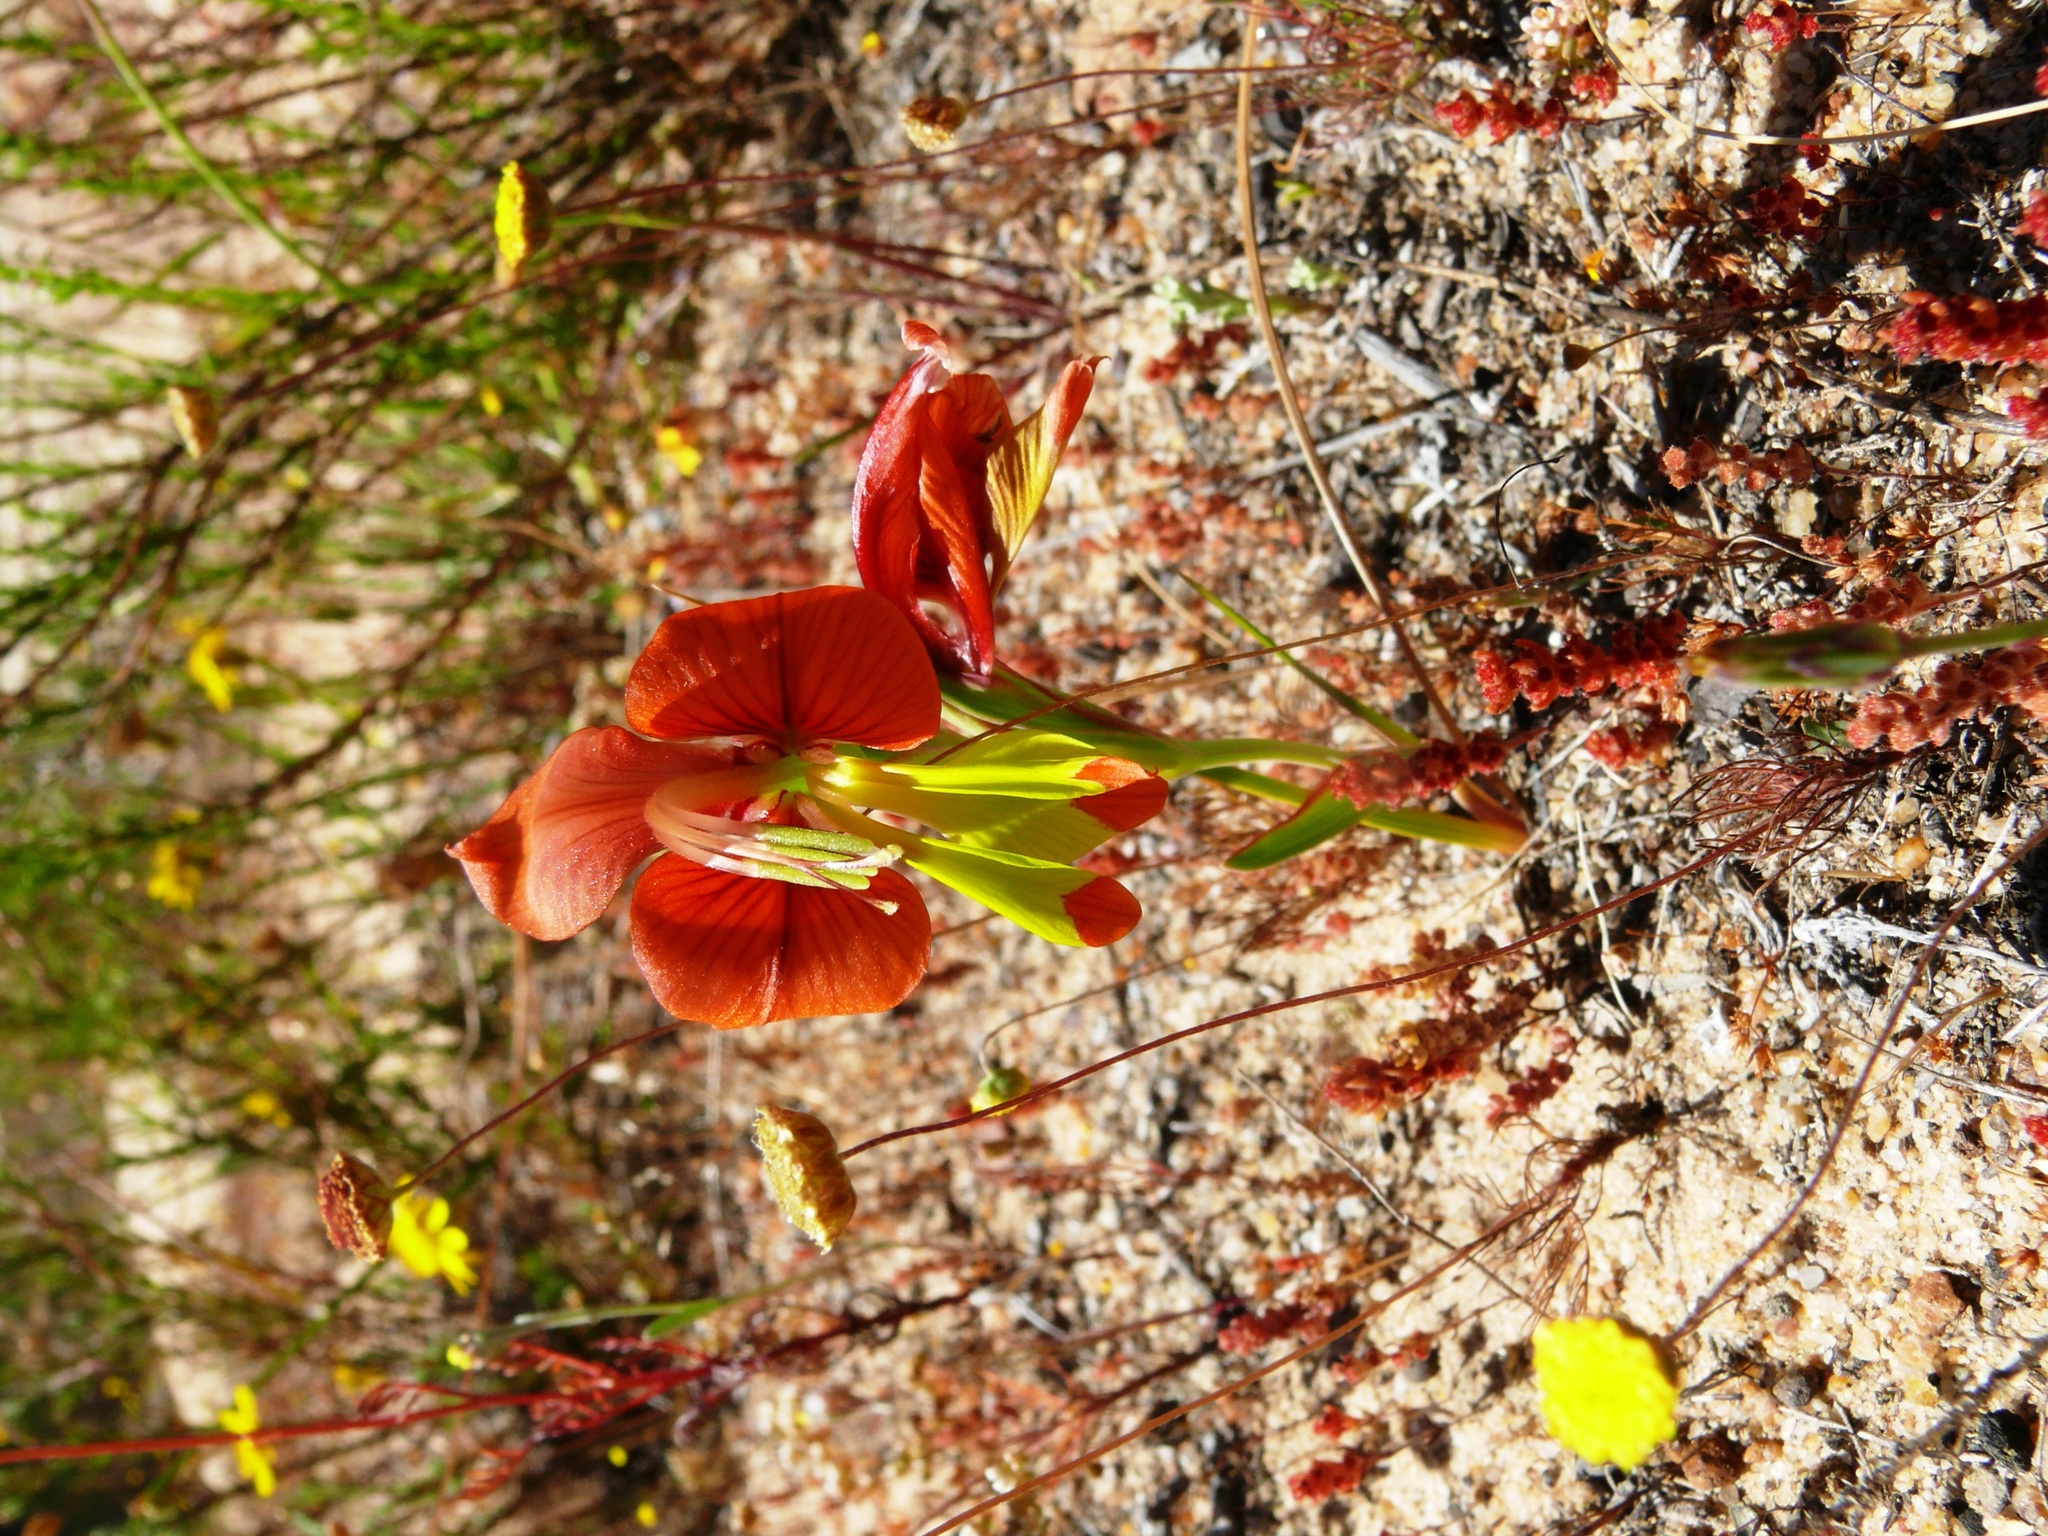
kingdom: Plantae
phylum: Tracheophyta
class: Liliopsida
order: Asparagales
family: Iridaceae
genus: Gladiolus
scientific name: Gladiolus alatus
